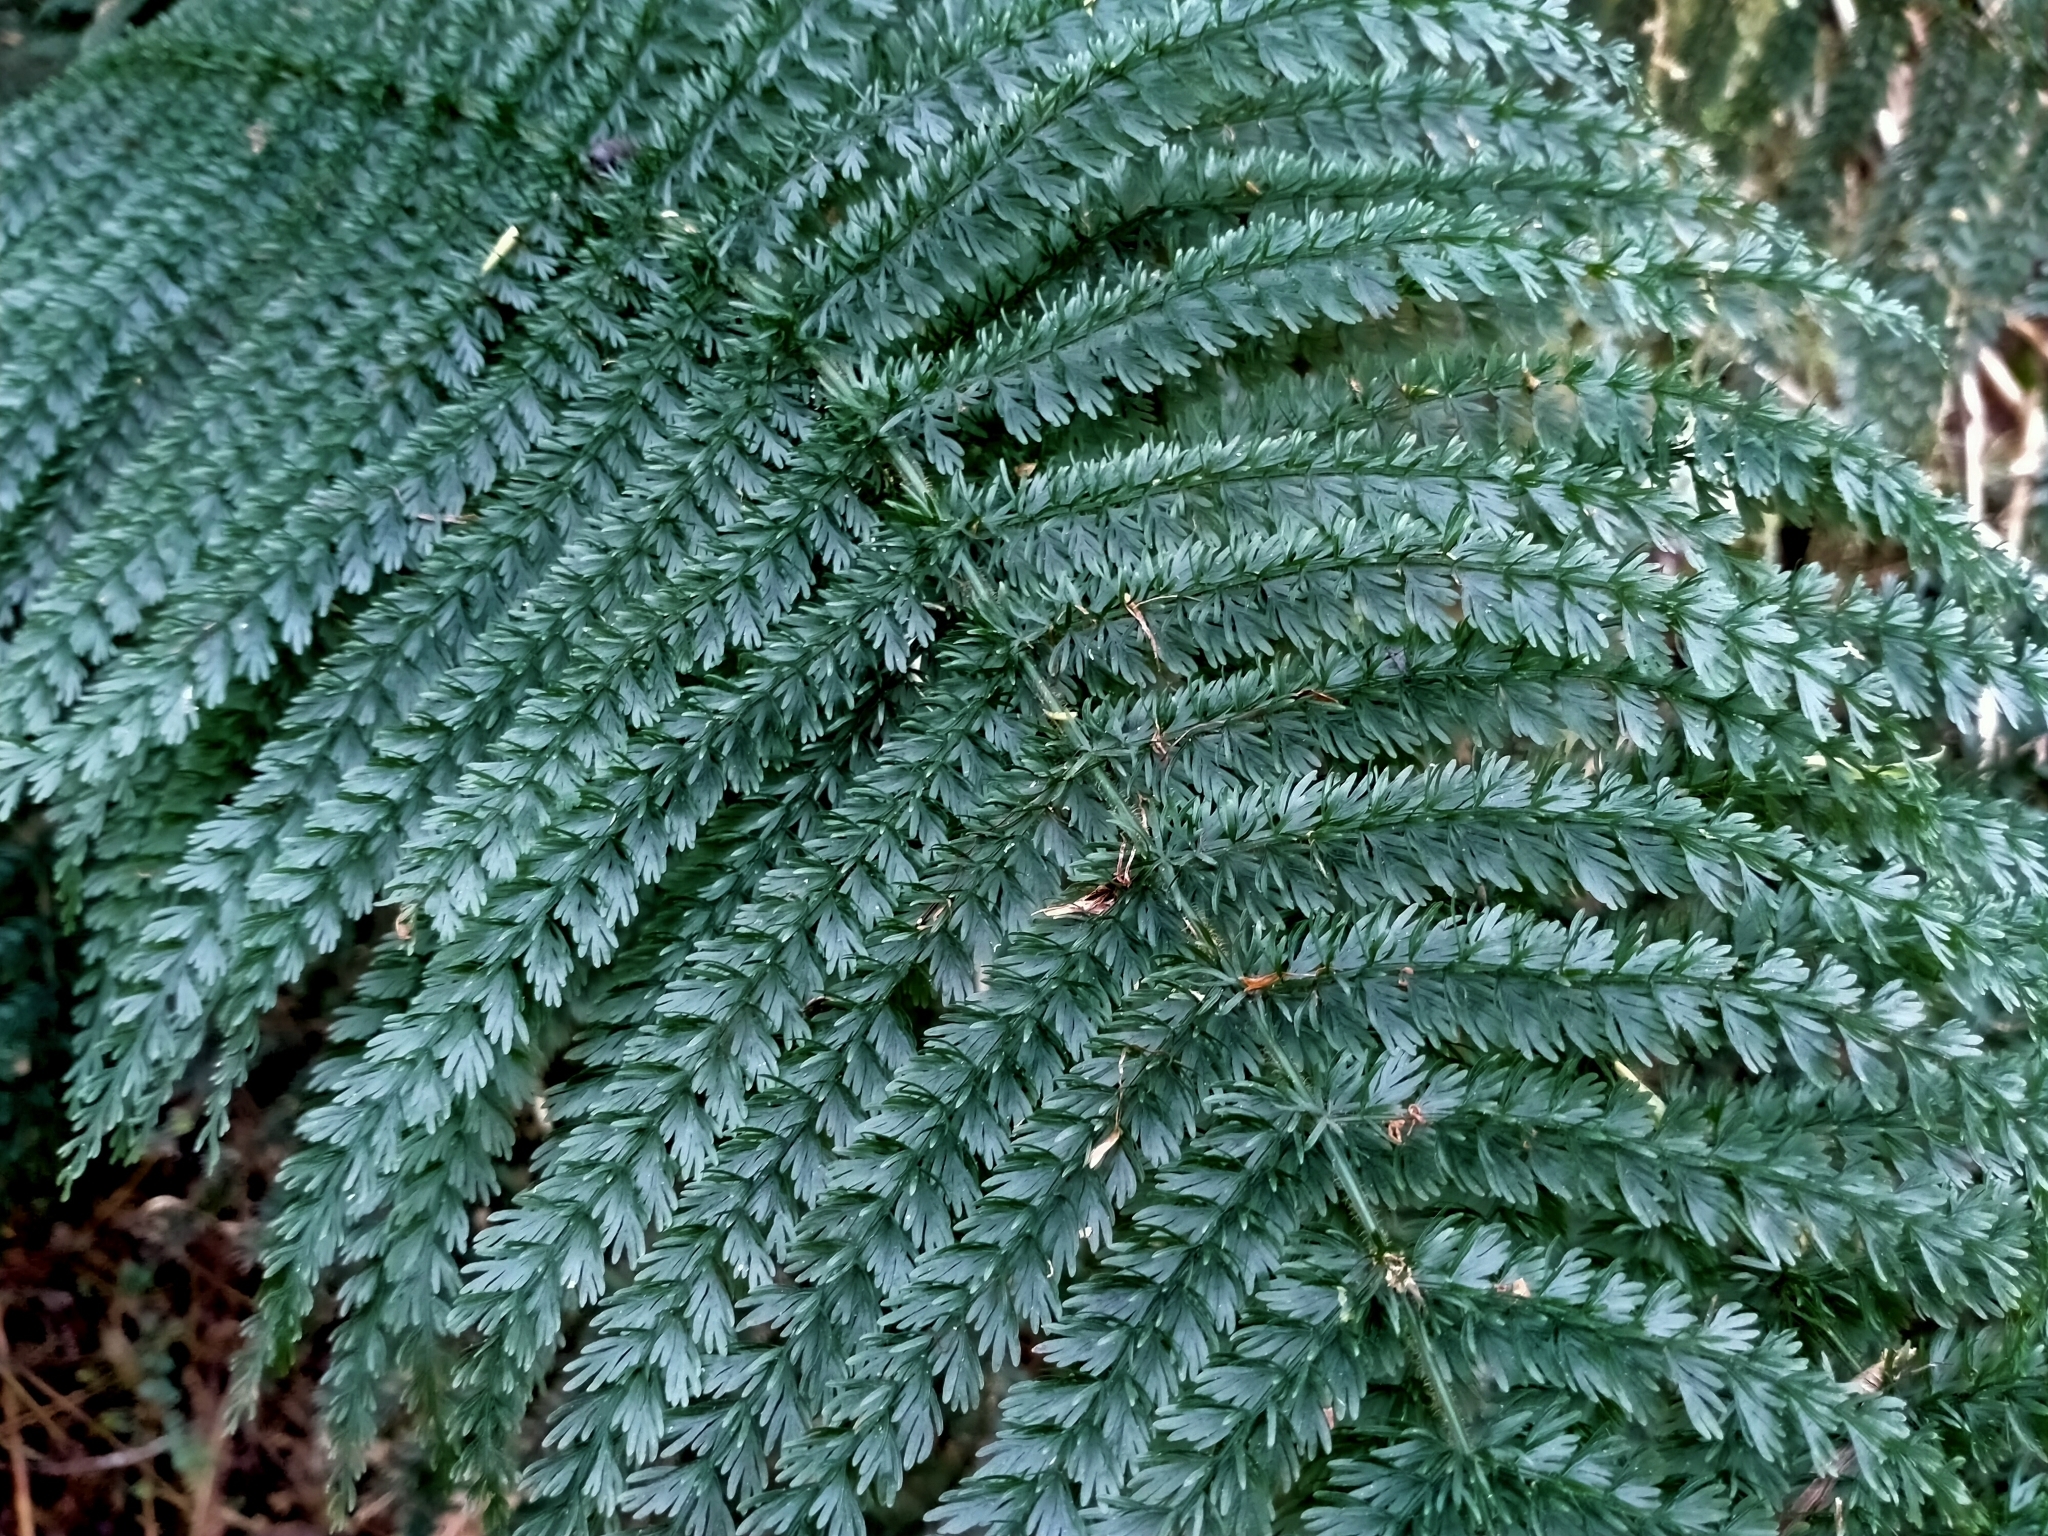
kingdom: Plantae
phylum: Tracheophyta
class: Polypodiopsida
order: Osmundales
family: Osmundaceae
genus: Leptopteris
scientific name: Leptopteris superba
